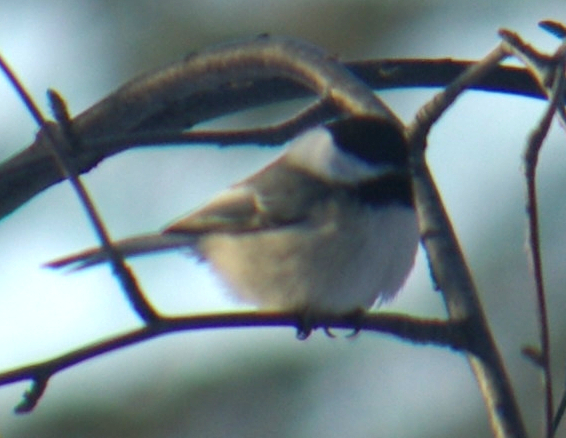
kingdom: Animalia
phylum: Chordata
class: Aves
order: Passeriformes
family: Paridae
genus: Poecile
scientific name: Poecile atricapillus
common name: Black-capped chickadee
